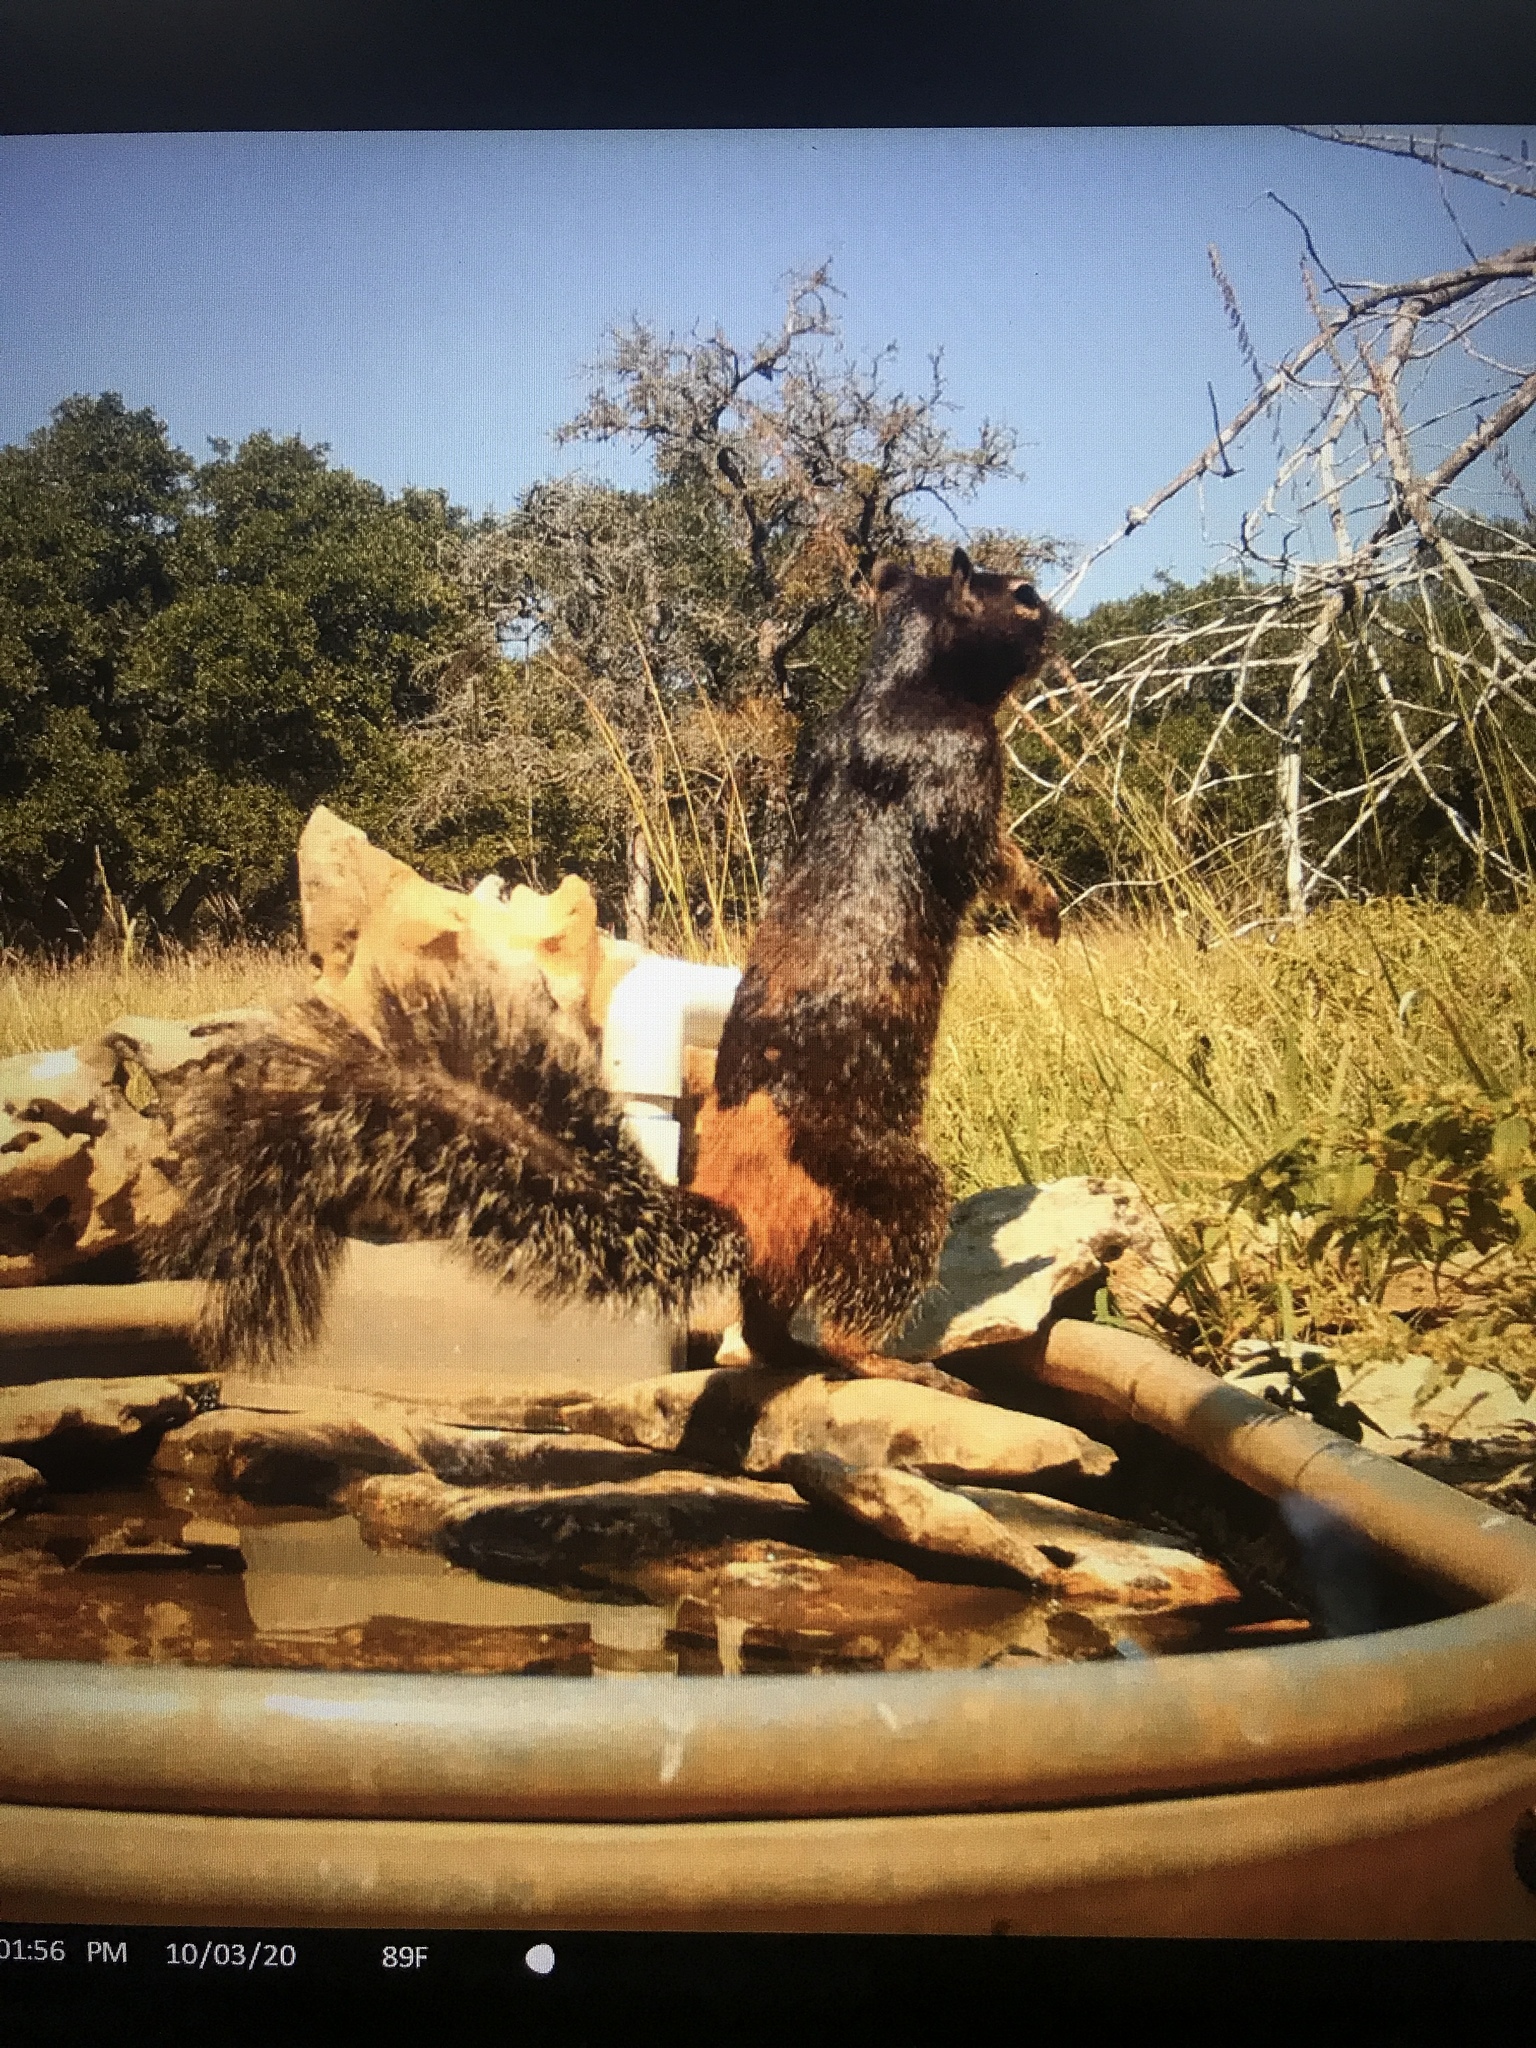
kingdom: Animalia
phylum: Chordata
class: Mammalia
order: Rodentia
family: Sciuridae
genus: Otospermophilus
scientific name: Otospermophilus variegatus
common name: Rock squirrel
